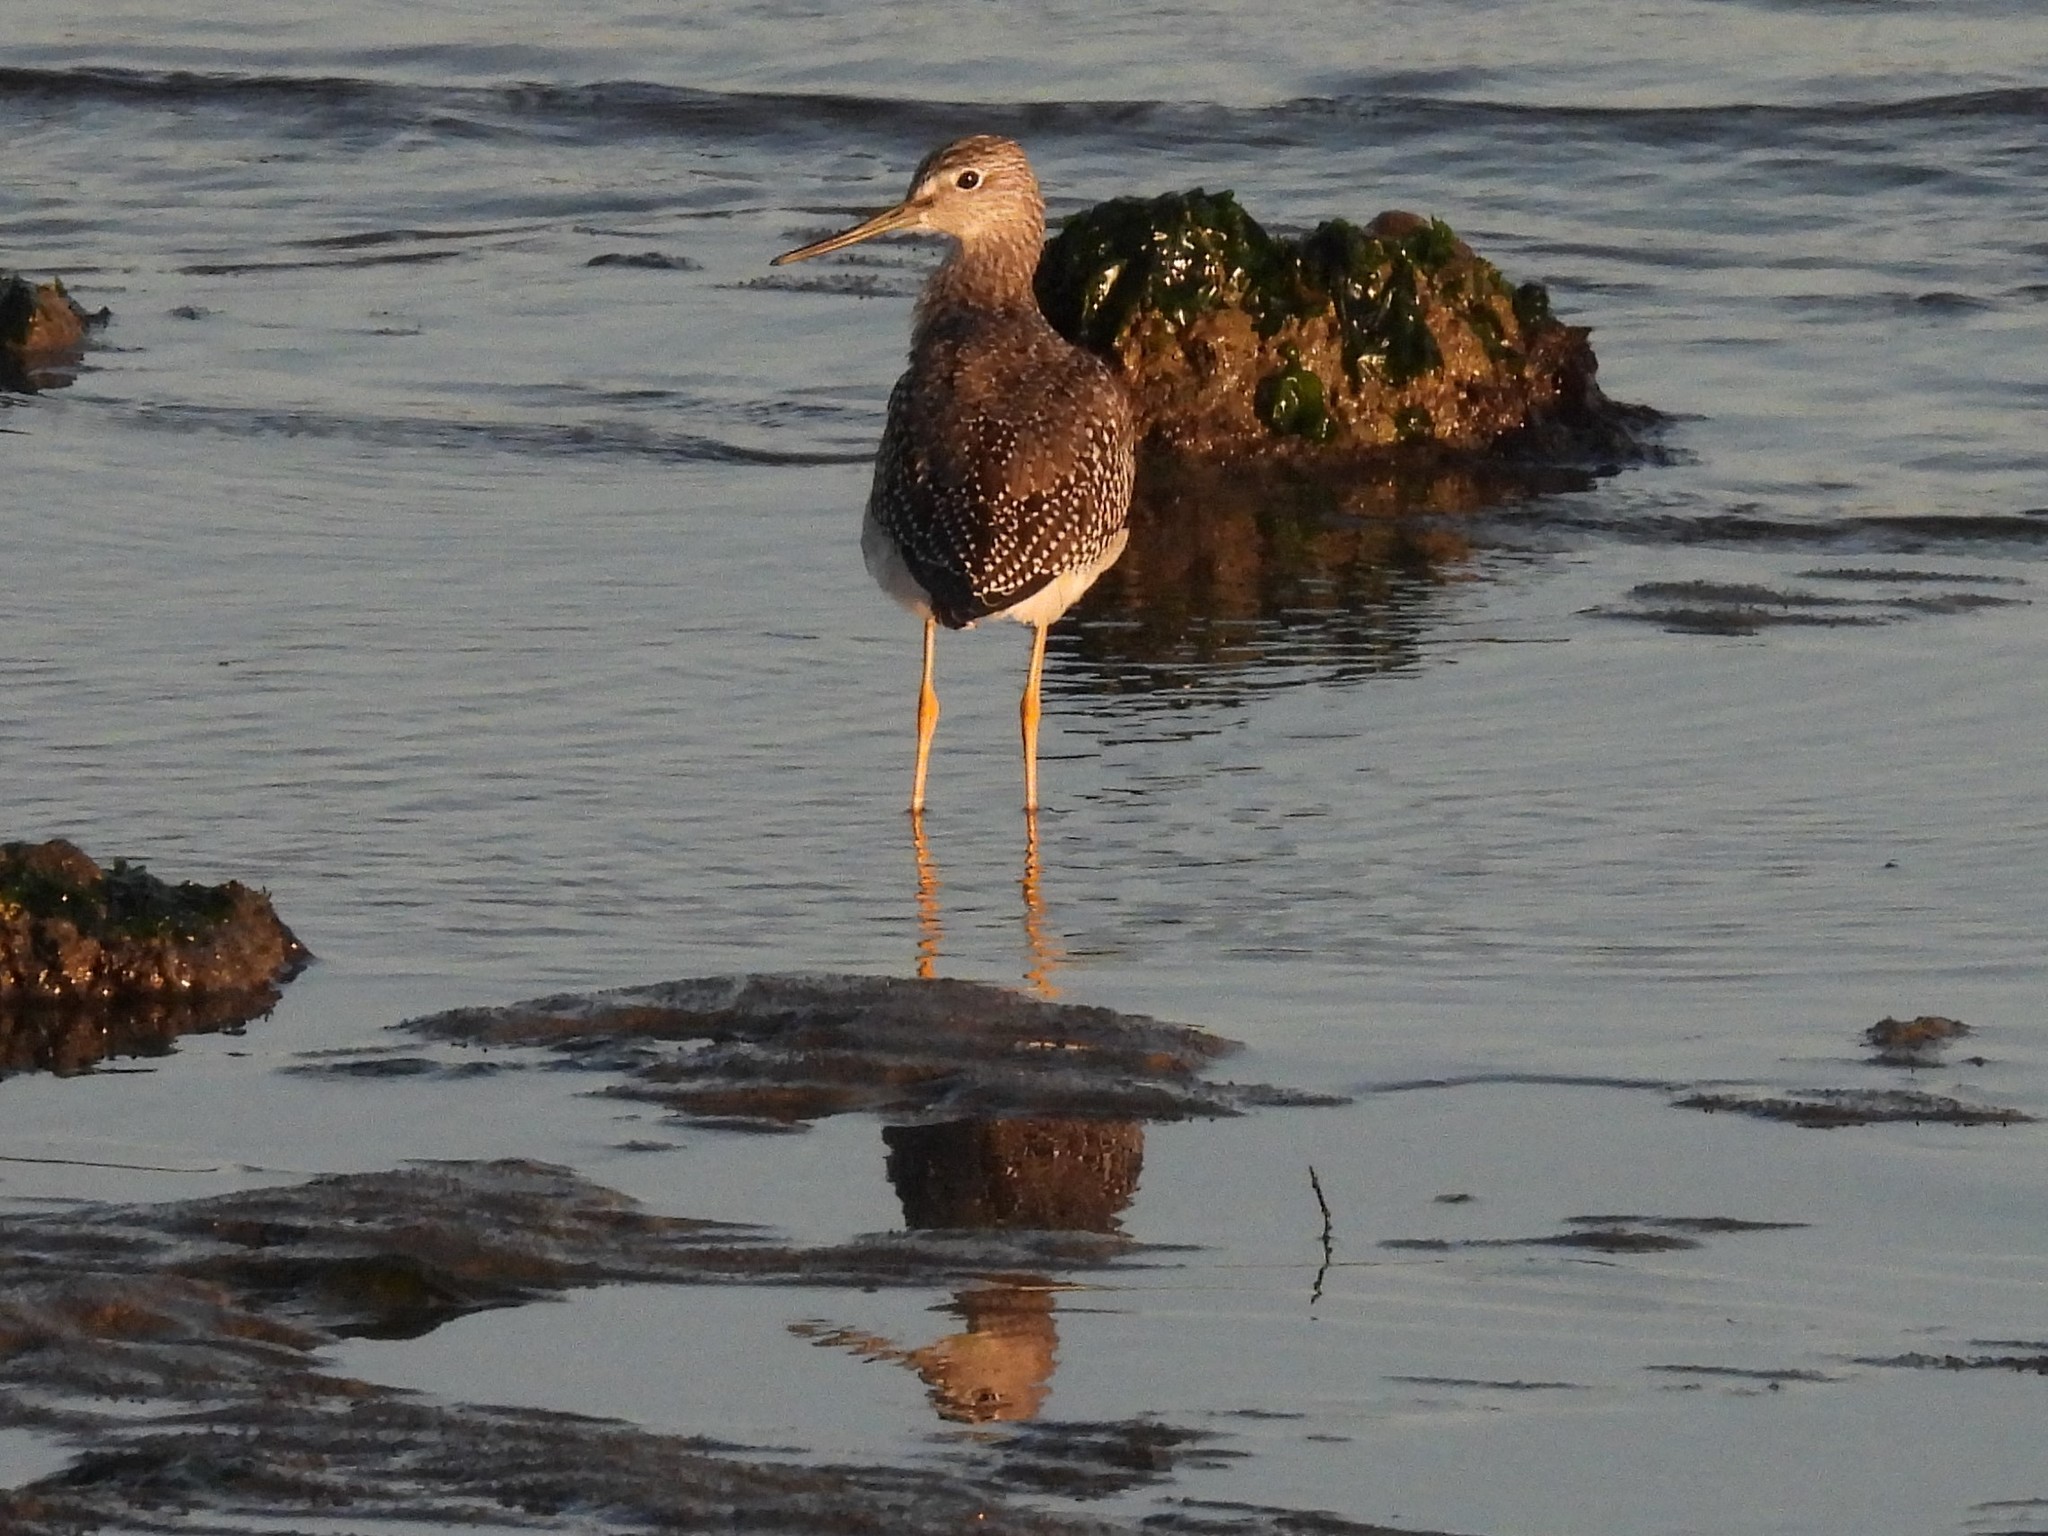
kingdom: Animalia
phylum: Chordata
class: Aves
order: Charadriiformes
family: Scolopacidae
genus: Tringa
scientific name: Tringa melanoleuca
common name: Greater yellowlegs
